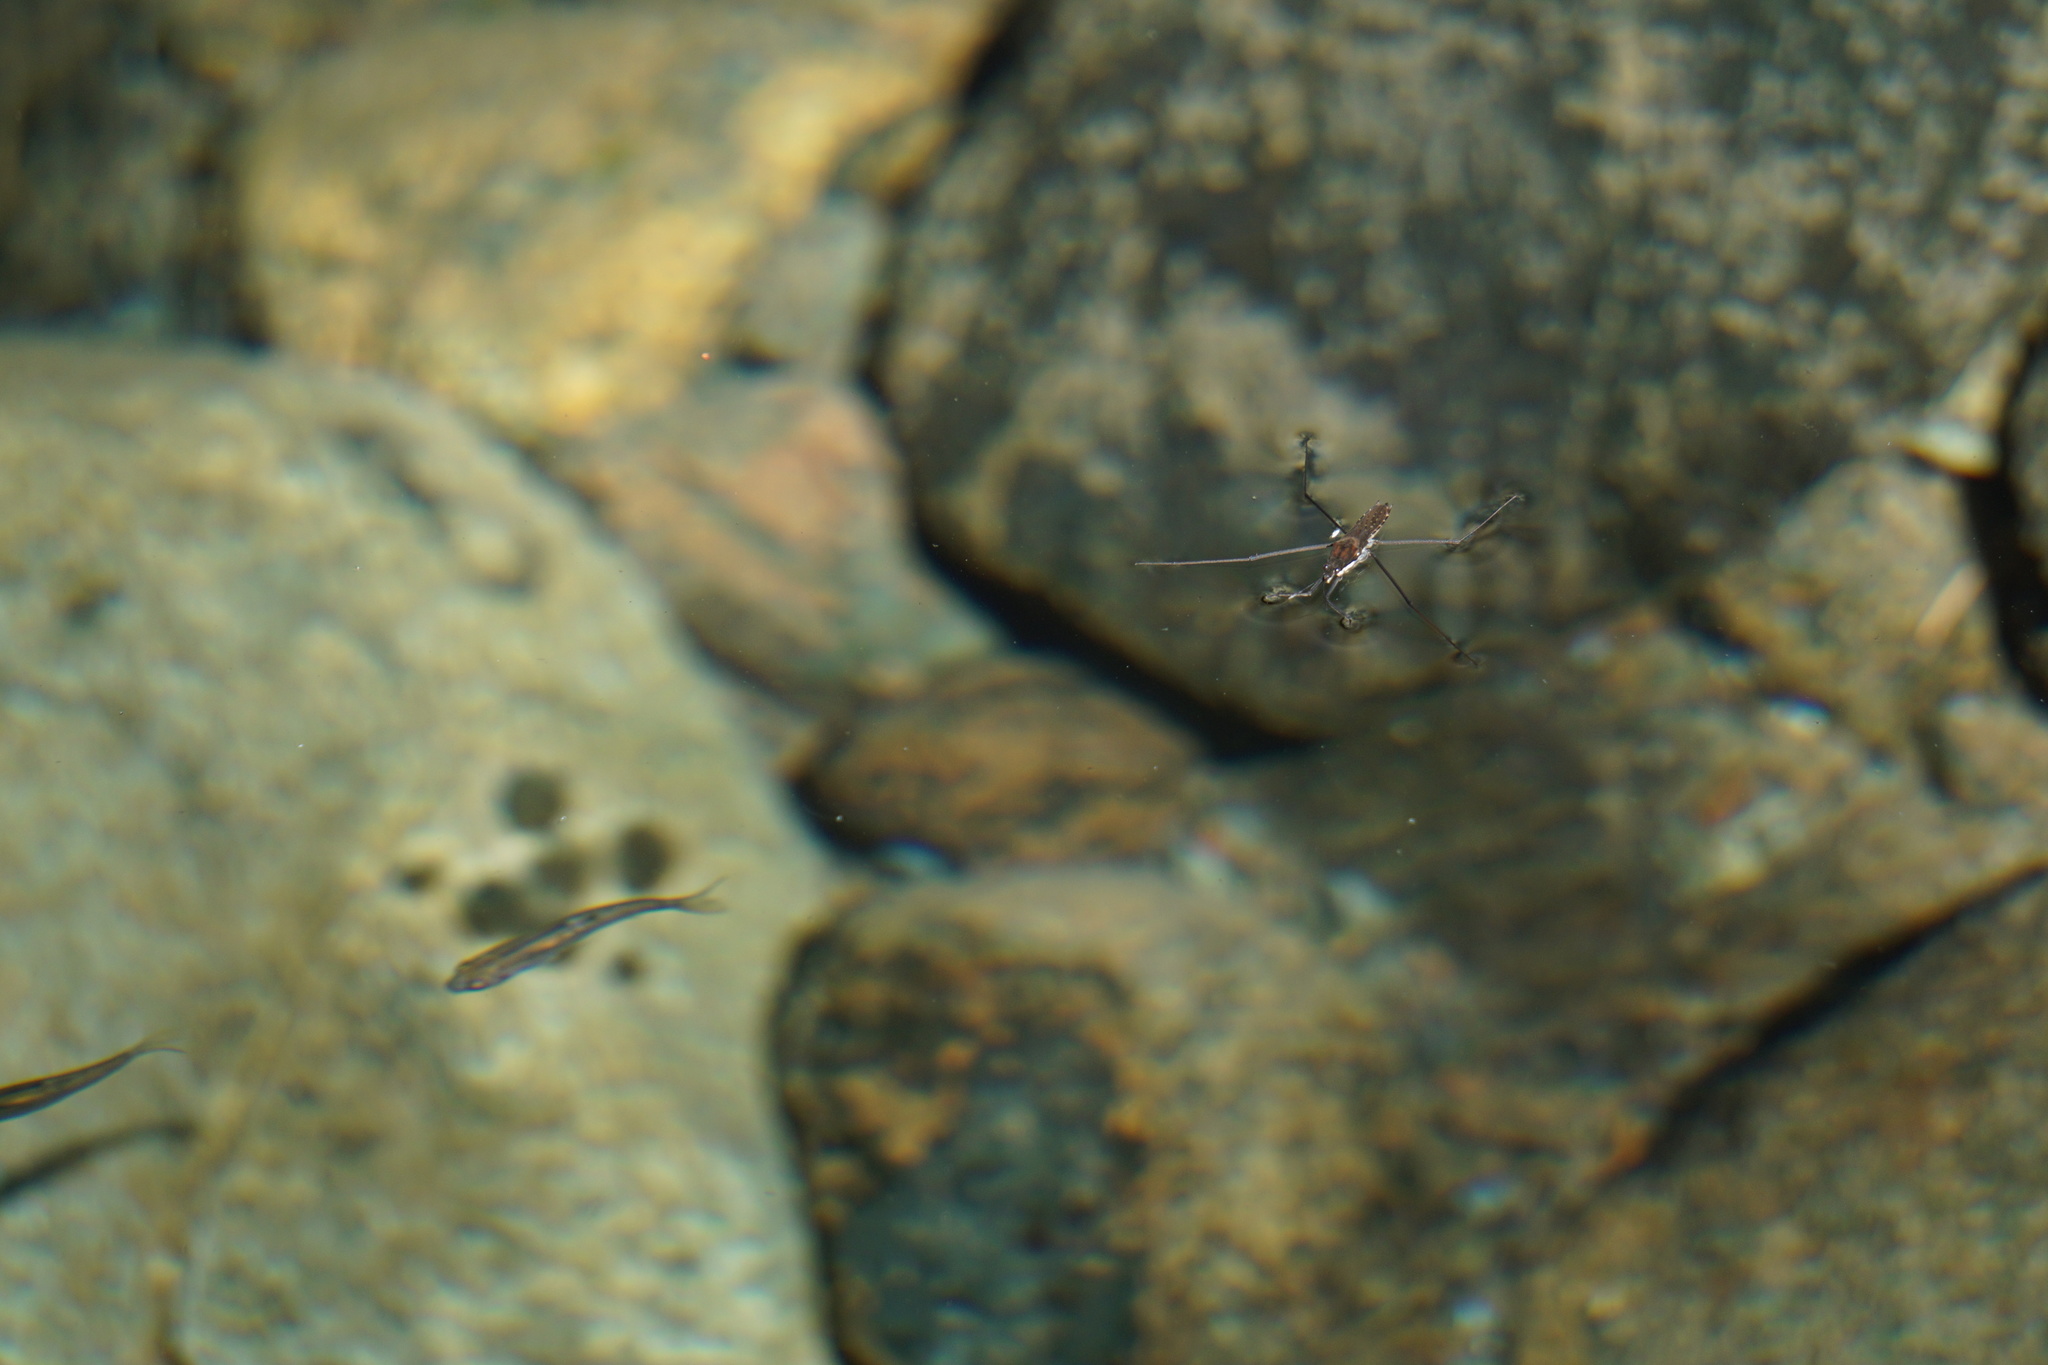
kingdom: Animalia
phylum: Chordata
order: Cypriniformes
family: Cyprinidae
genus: Hesperoleucus
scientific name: Hesperoleucus symmetricus
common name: California roach
